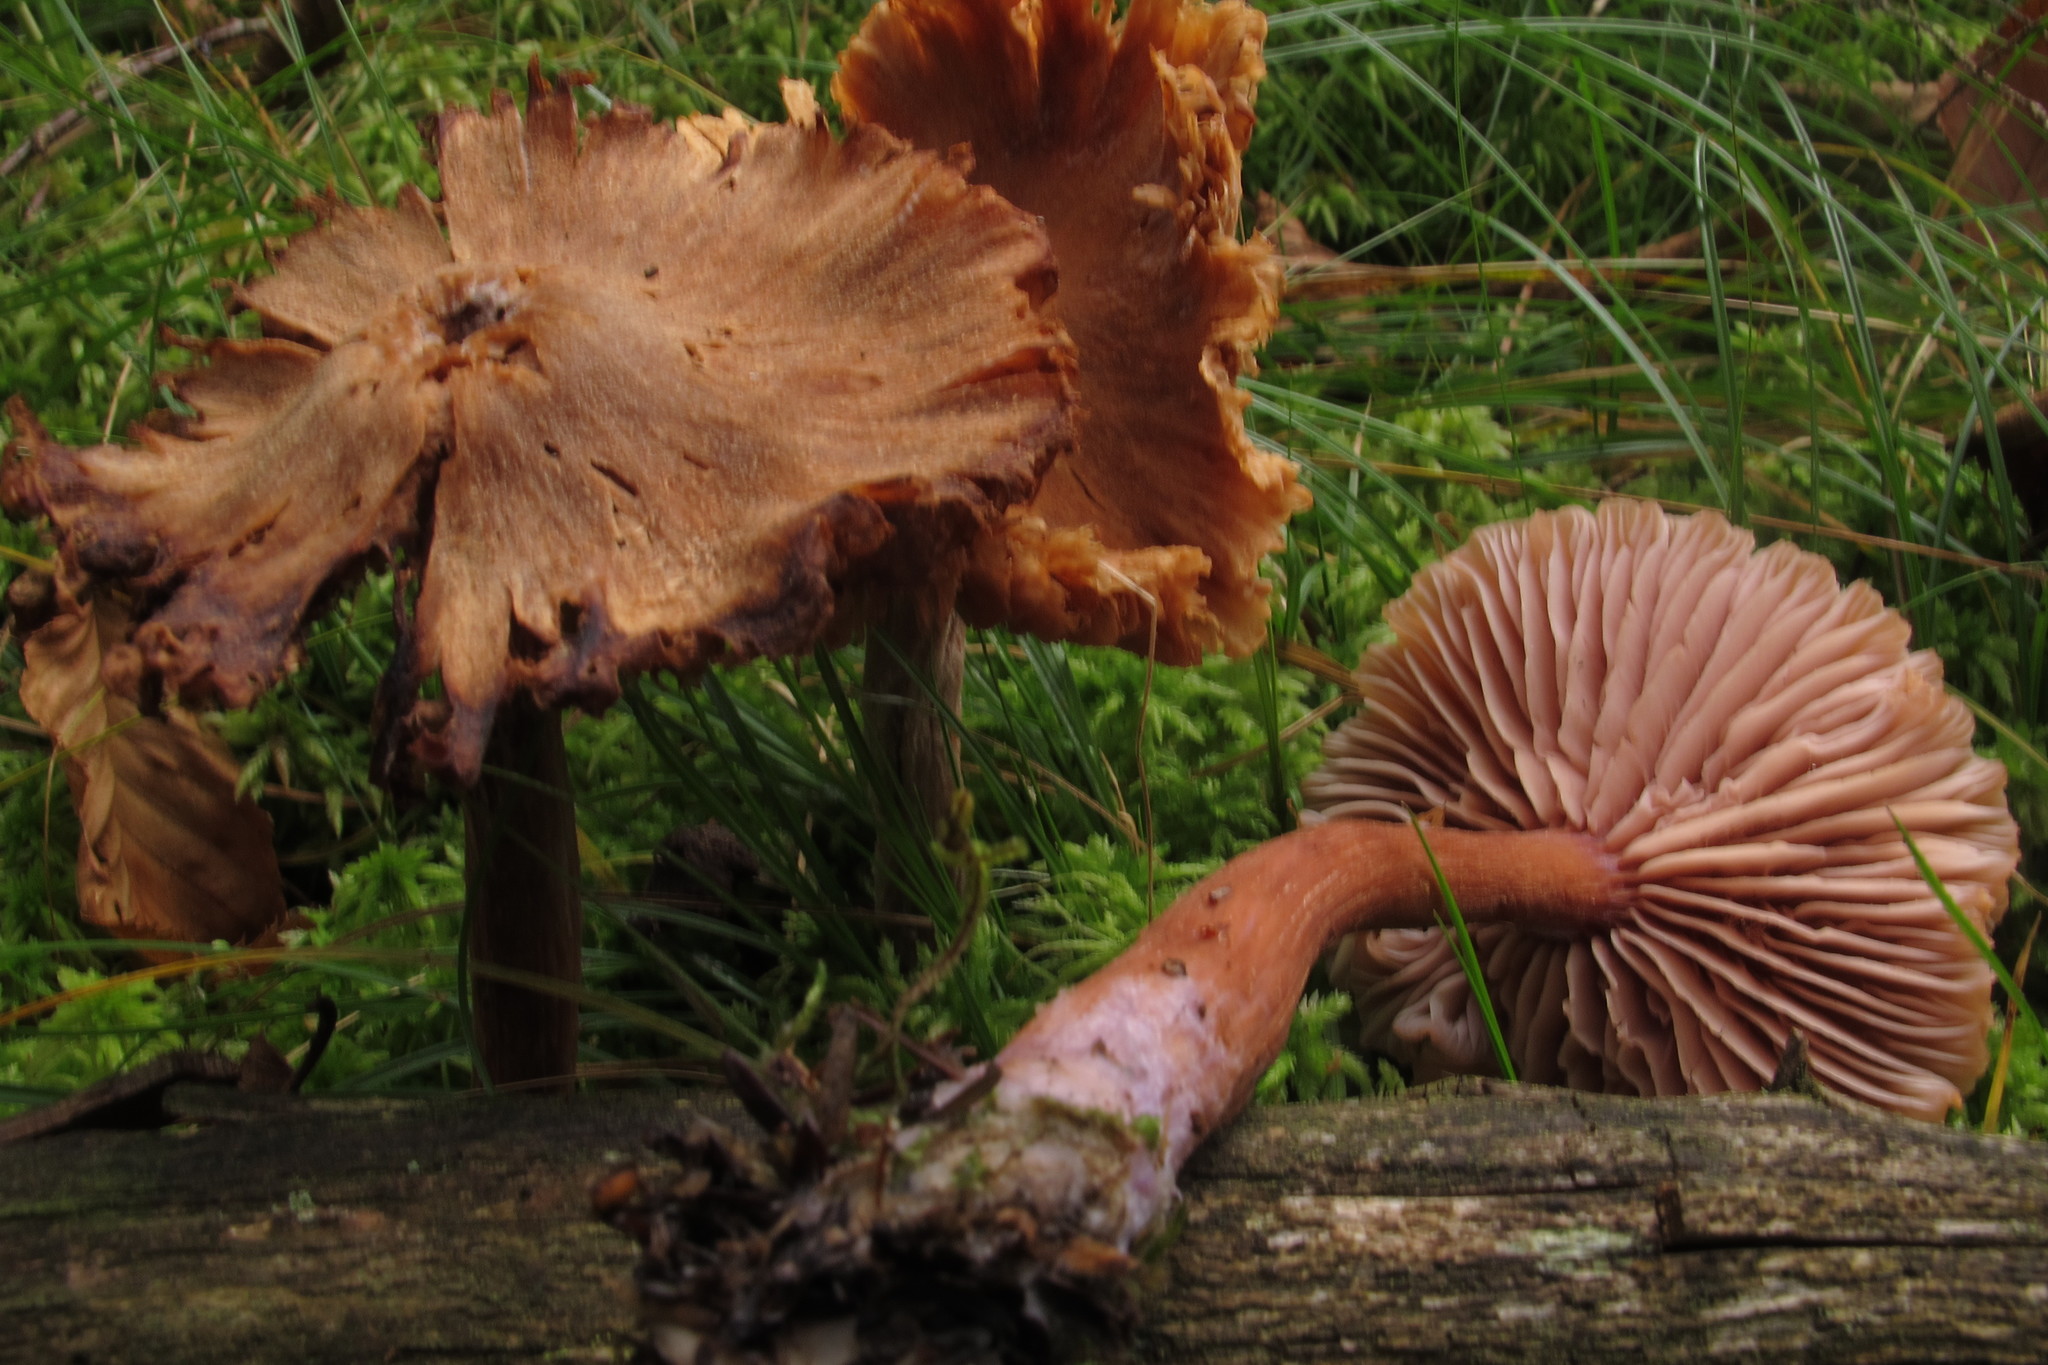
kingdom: Fungi
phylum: Basidiomycota
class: Agaricomycetes
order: Agaricales
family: Hydnangiaceae
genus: Laccaria
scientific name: Laccaria bicolor
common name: Bicoloured deceiver
